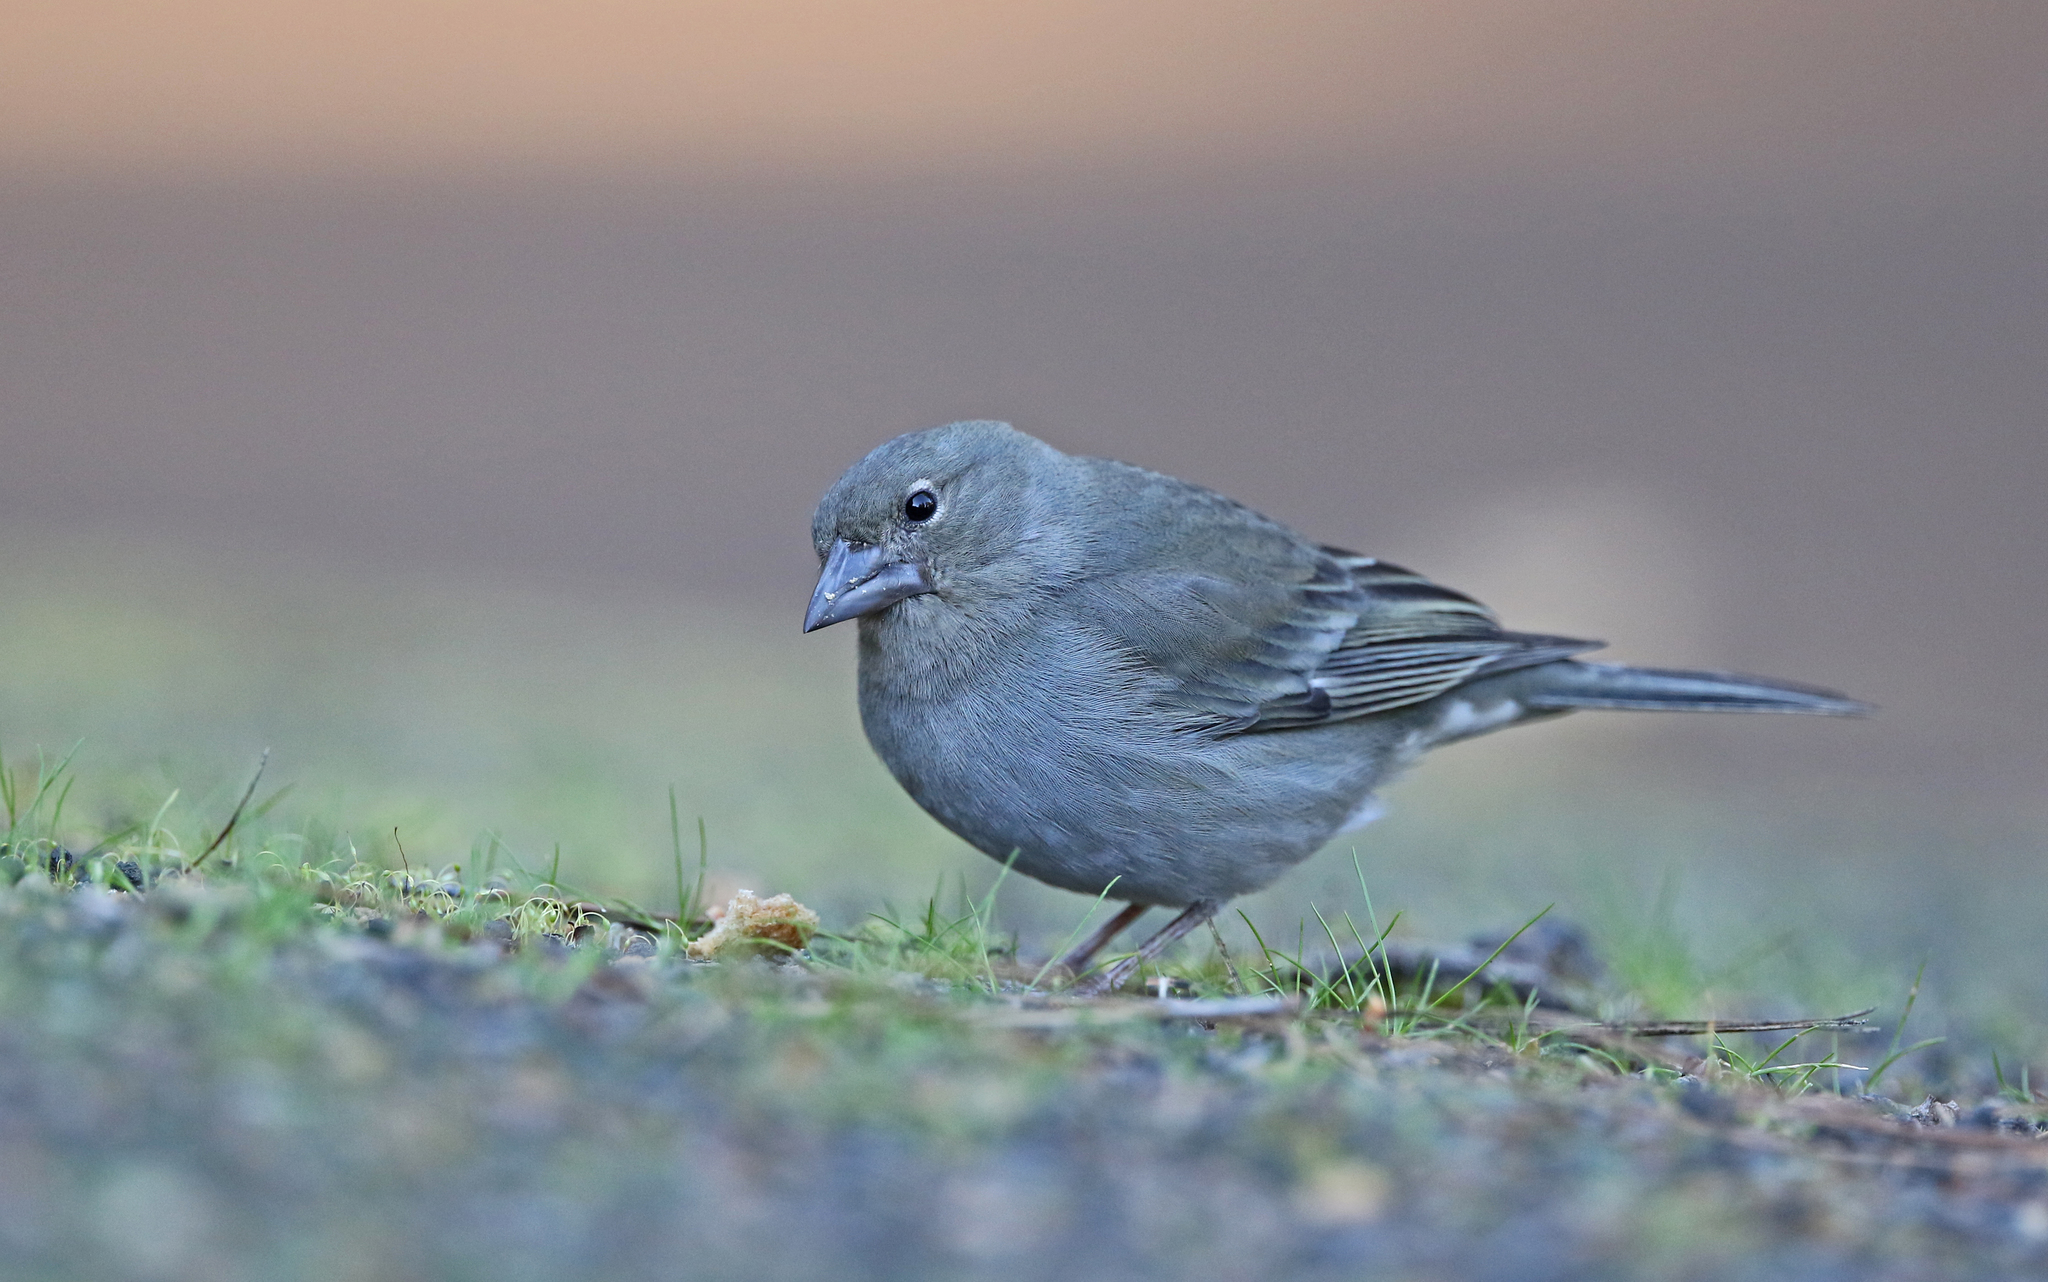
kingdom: Animalia
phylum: Chordata
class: Aves
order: Passeriformes
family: Fringillidae
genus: Fringilla
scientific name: Fringilla teydea
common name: Blue chaffinch
